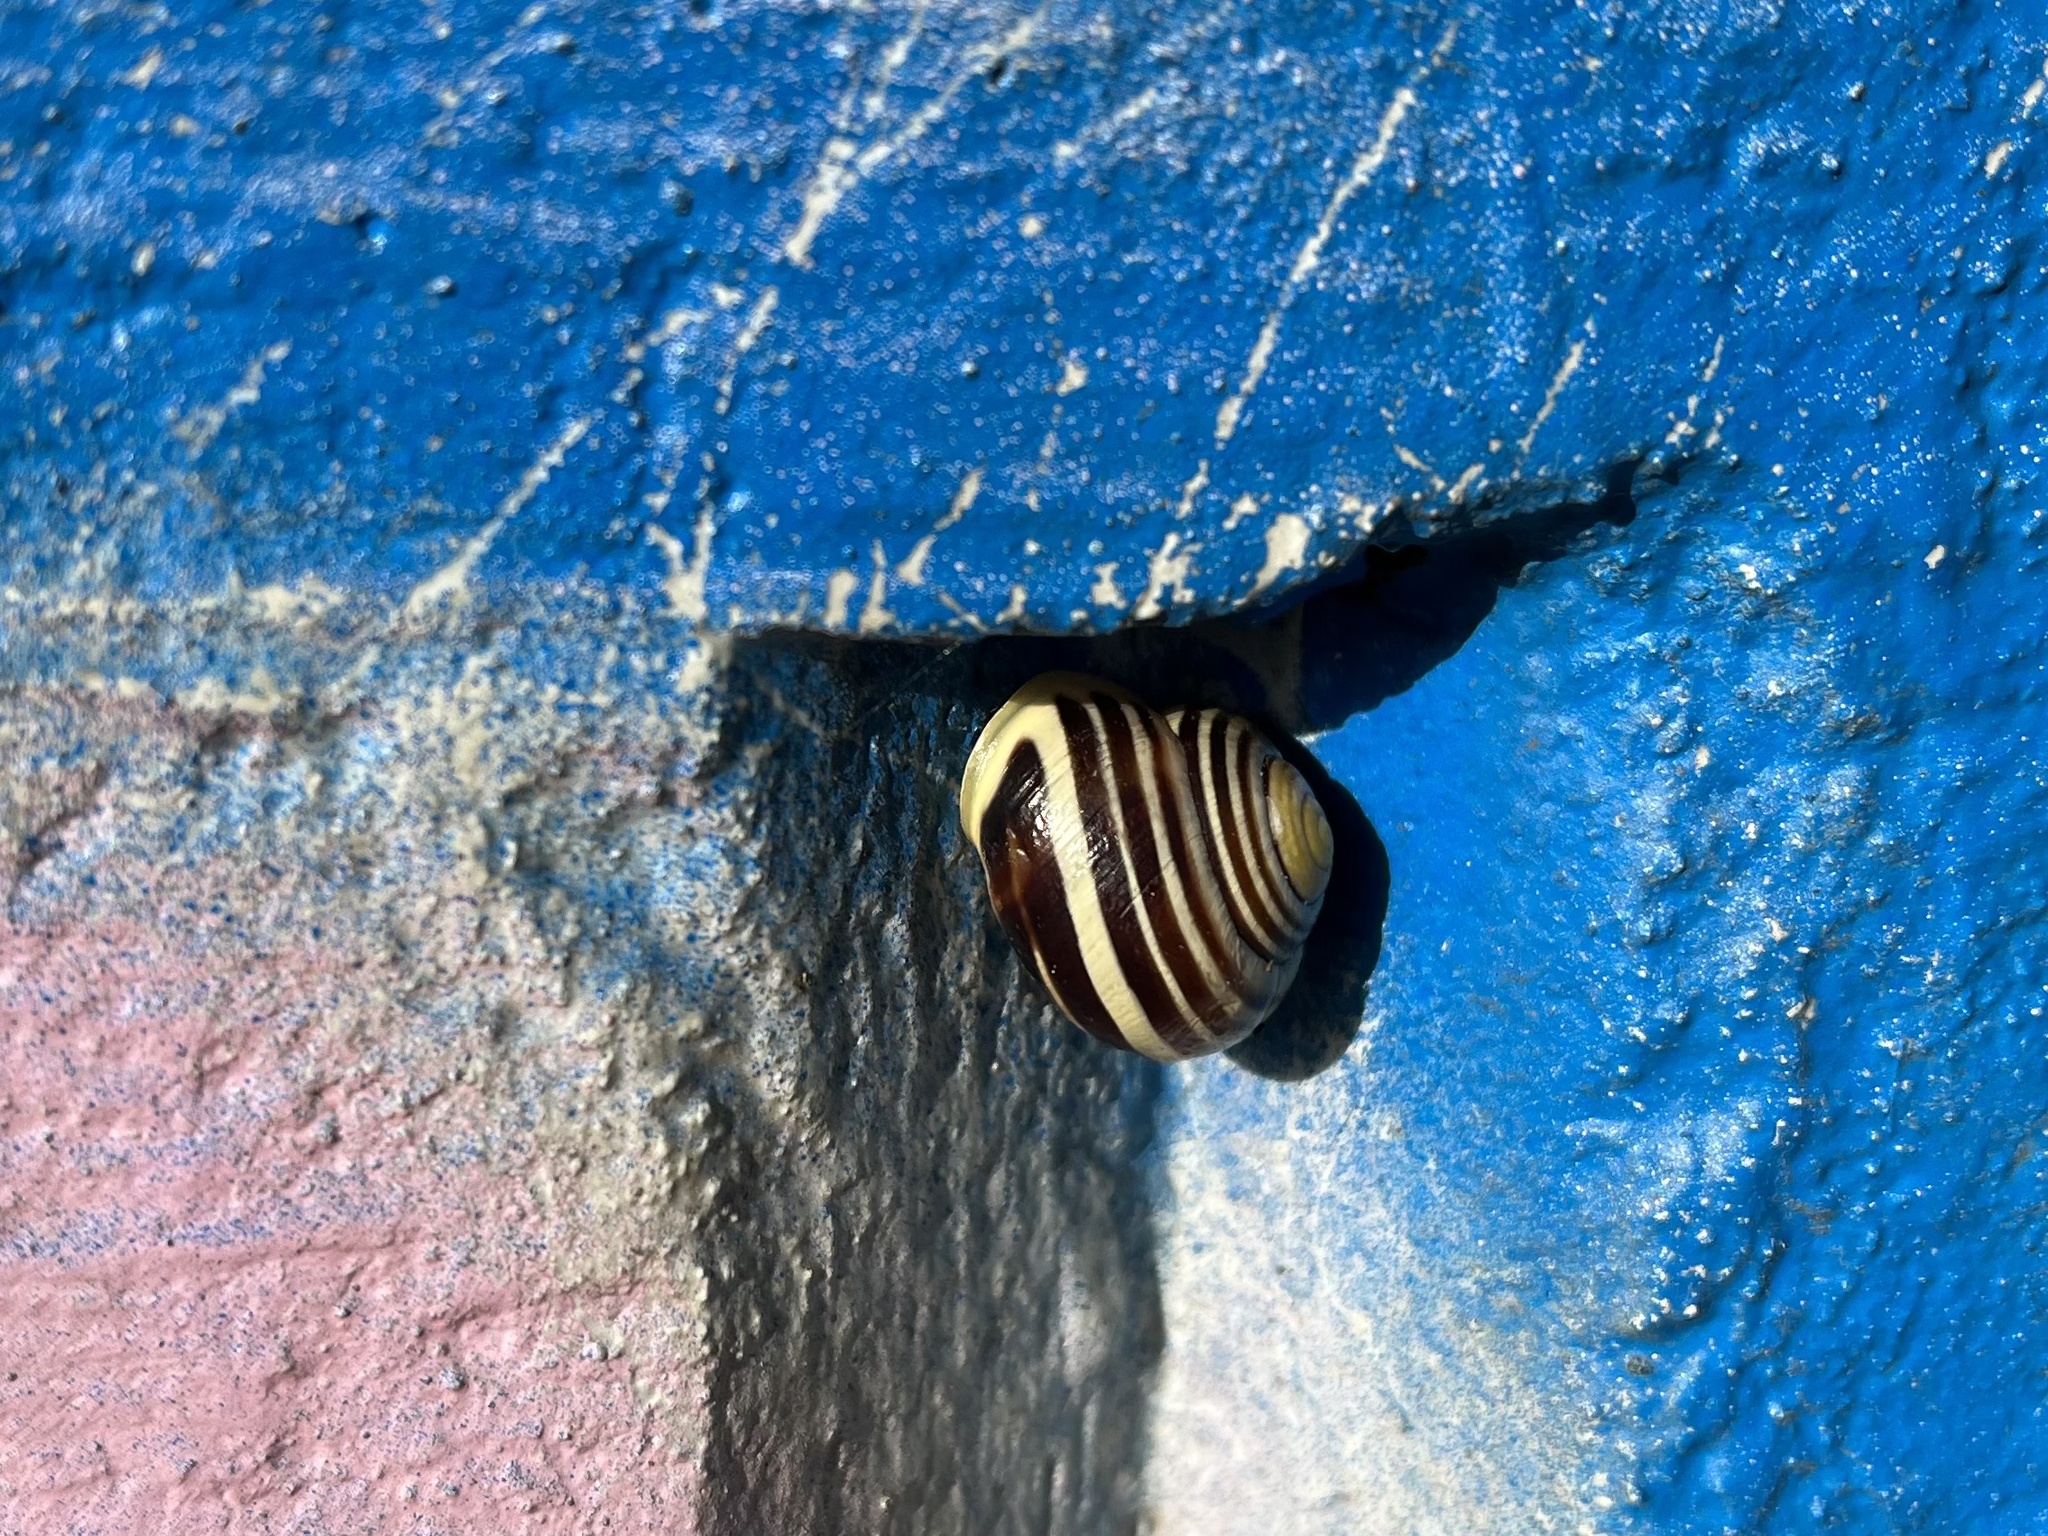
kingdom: Animalia
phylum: Mollusca
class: Gastropoda
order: Stylommatophora
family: Helicidae
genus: Cepaea
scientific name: Cepaea hortensis
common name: White-lip gardensnail
